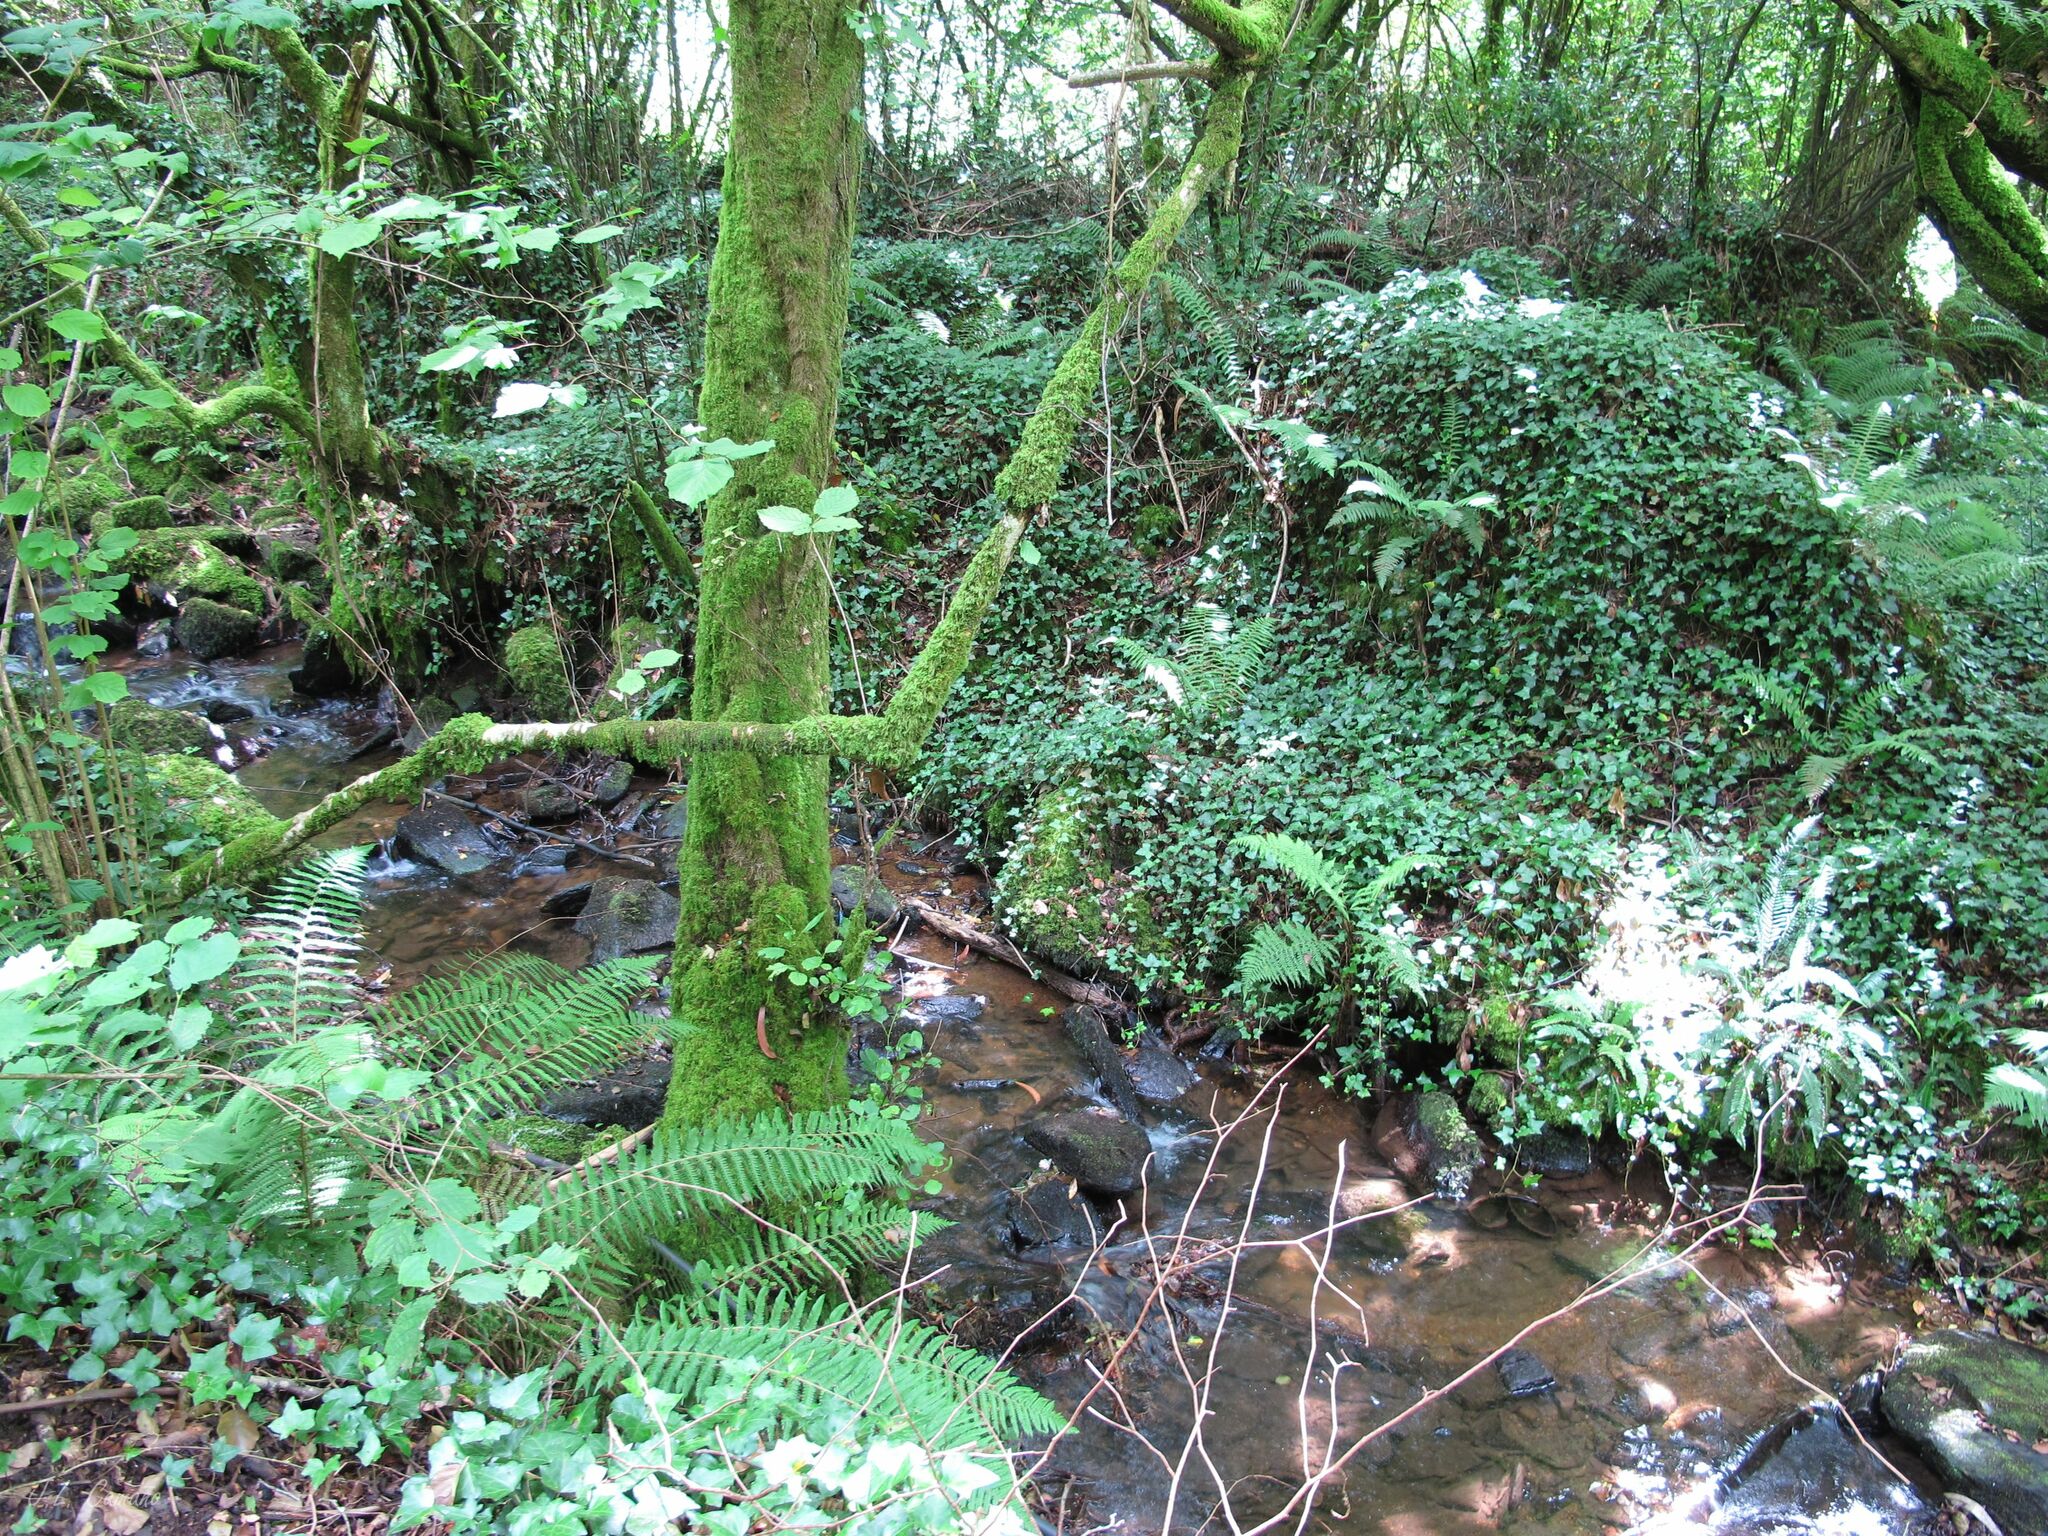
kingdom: Plantae
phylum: Bryophyta
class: Bryopsida
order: Hypnales
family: Neckeraceae
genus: Exsertotheca
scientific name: Exsertotheca crispa
